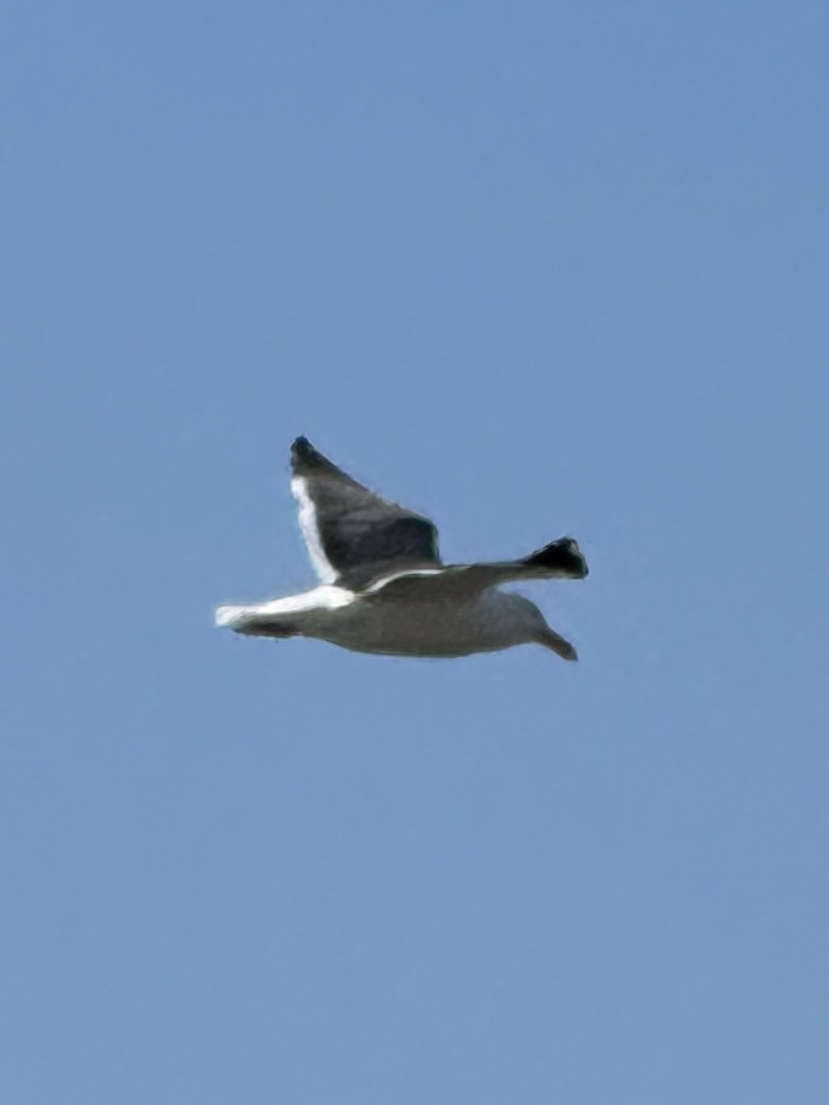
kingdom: Animalia
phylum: Chordata
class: Aves
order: Charadriiformes
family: Laridae
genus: Larus
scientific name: Larus occidentalis
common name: Western gull
